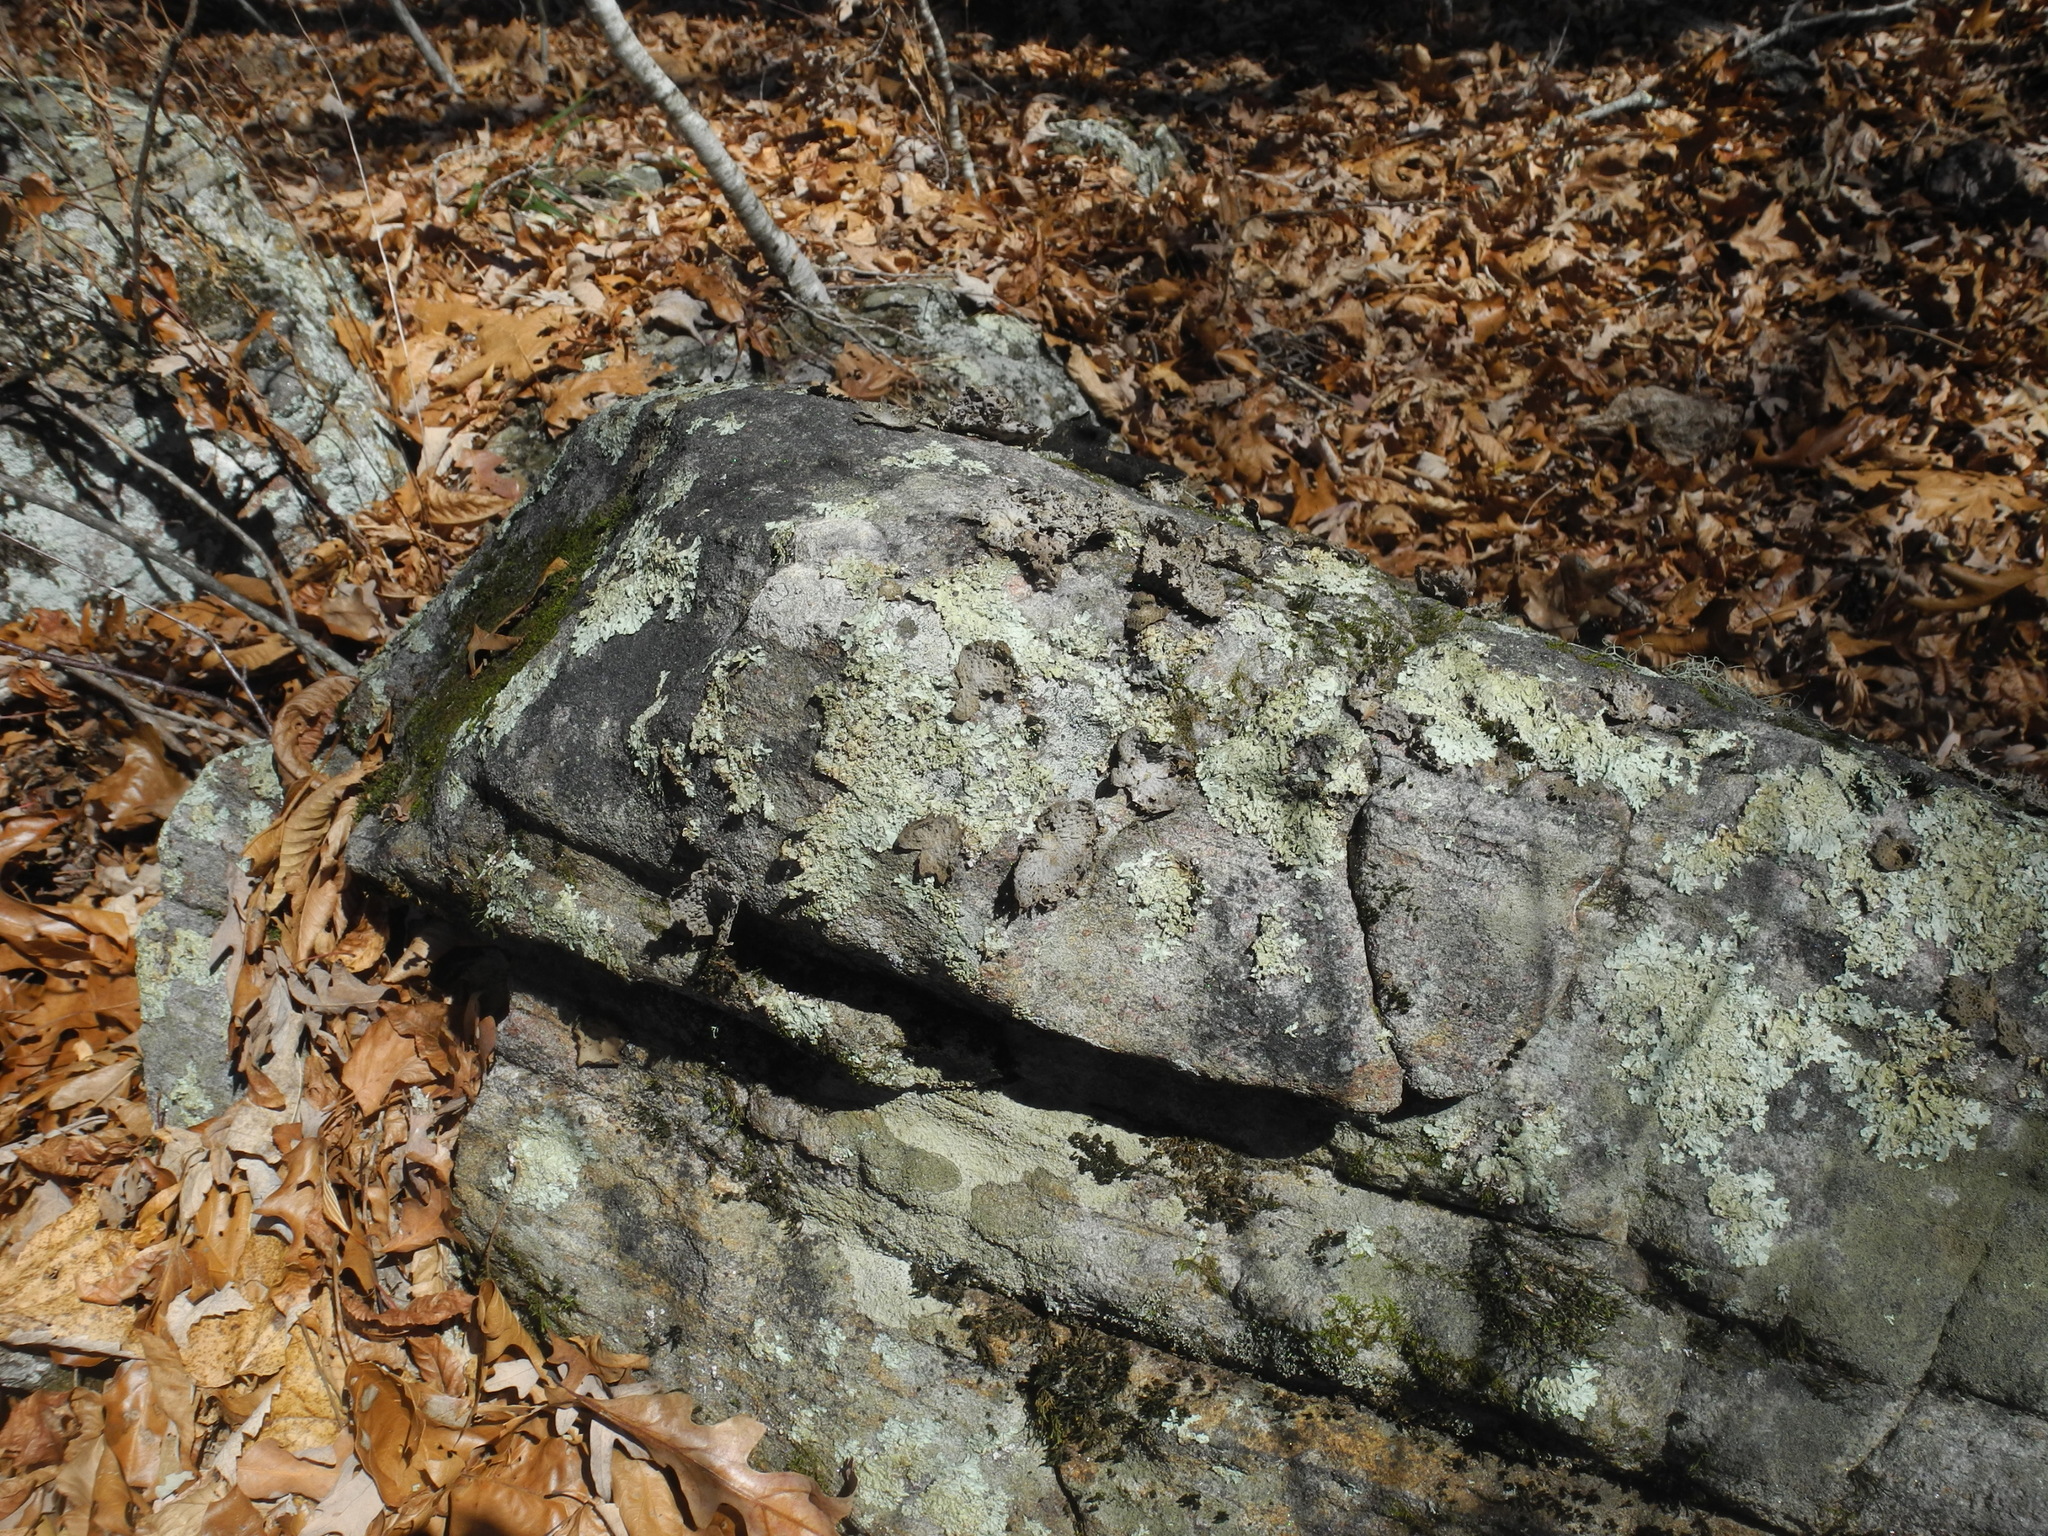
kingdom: Fungi
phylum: Ascomycota
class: Lecanoromycetes
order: Umbilicariales
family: Umbilicariaceae
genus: Lasallia
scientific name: Lasallia papulosa
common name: Common toadskin lichen
